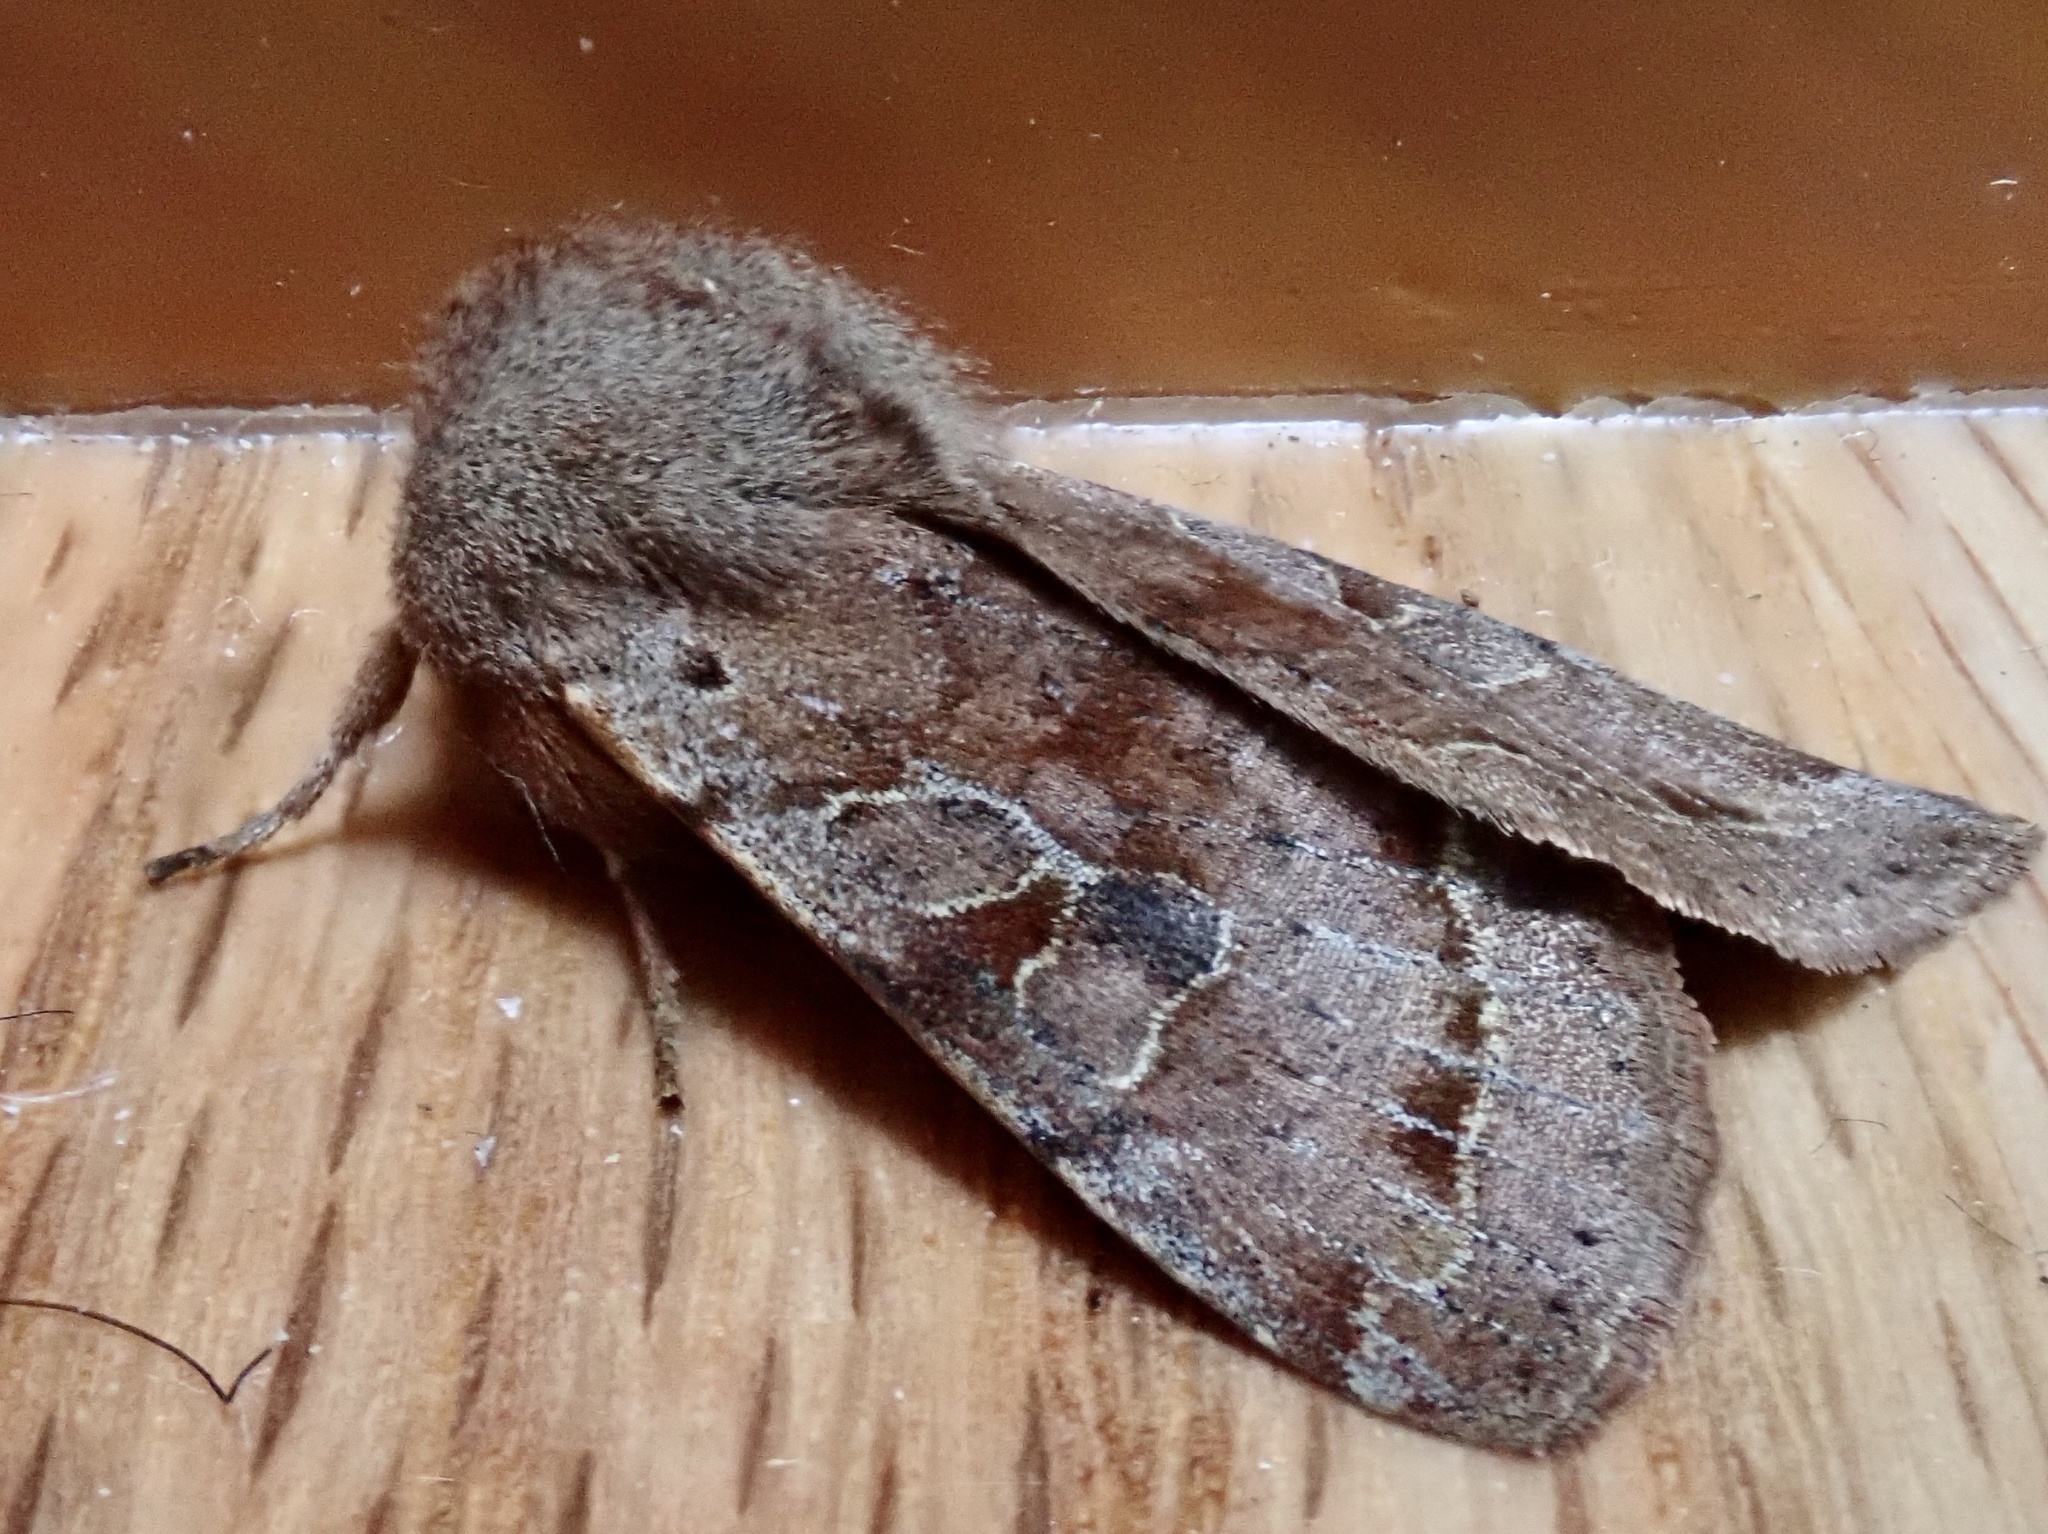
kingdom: Animalia
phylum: Arthropoda
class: Insecta
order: Lepidoptera
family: Noctuidae
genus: Orthosia
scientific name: Orthosia hibisci
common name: Green fruitworm
